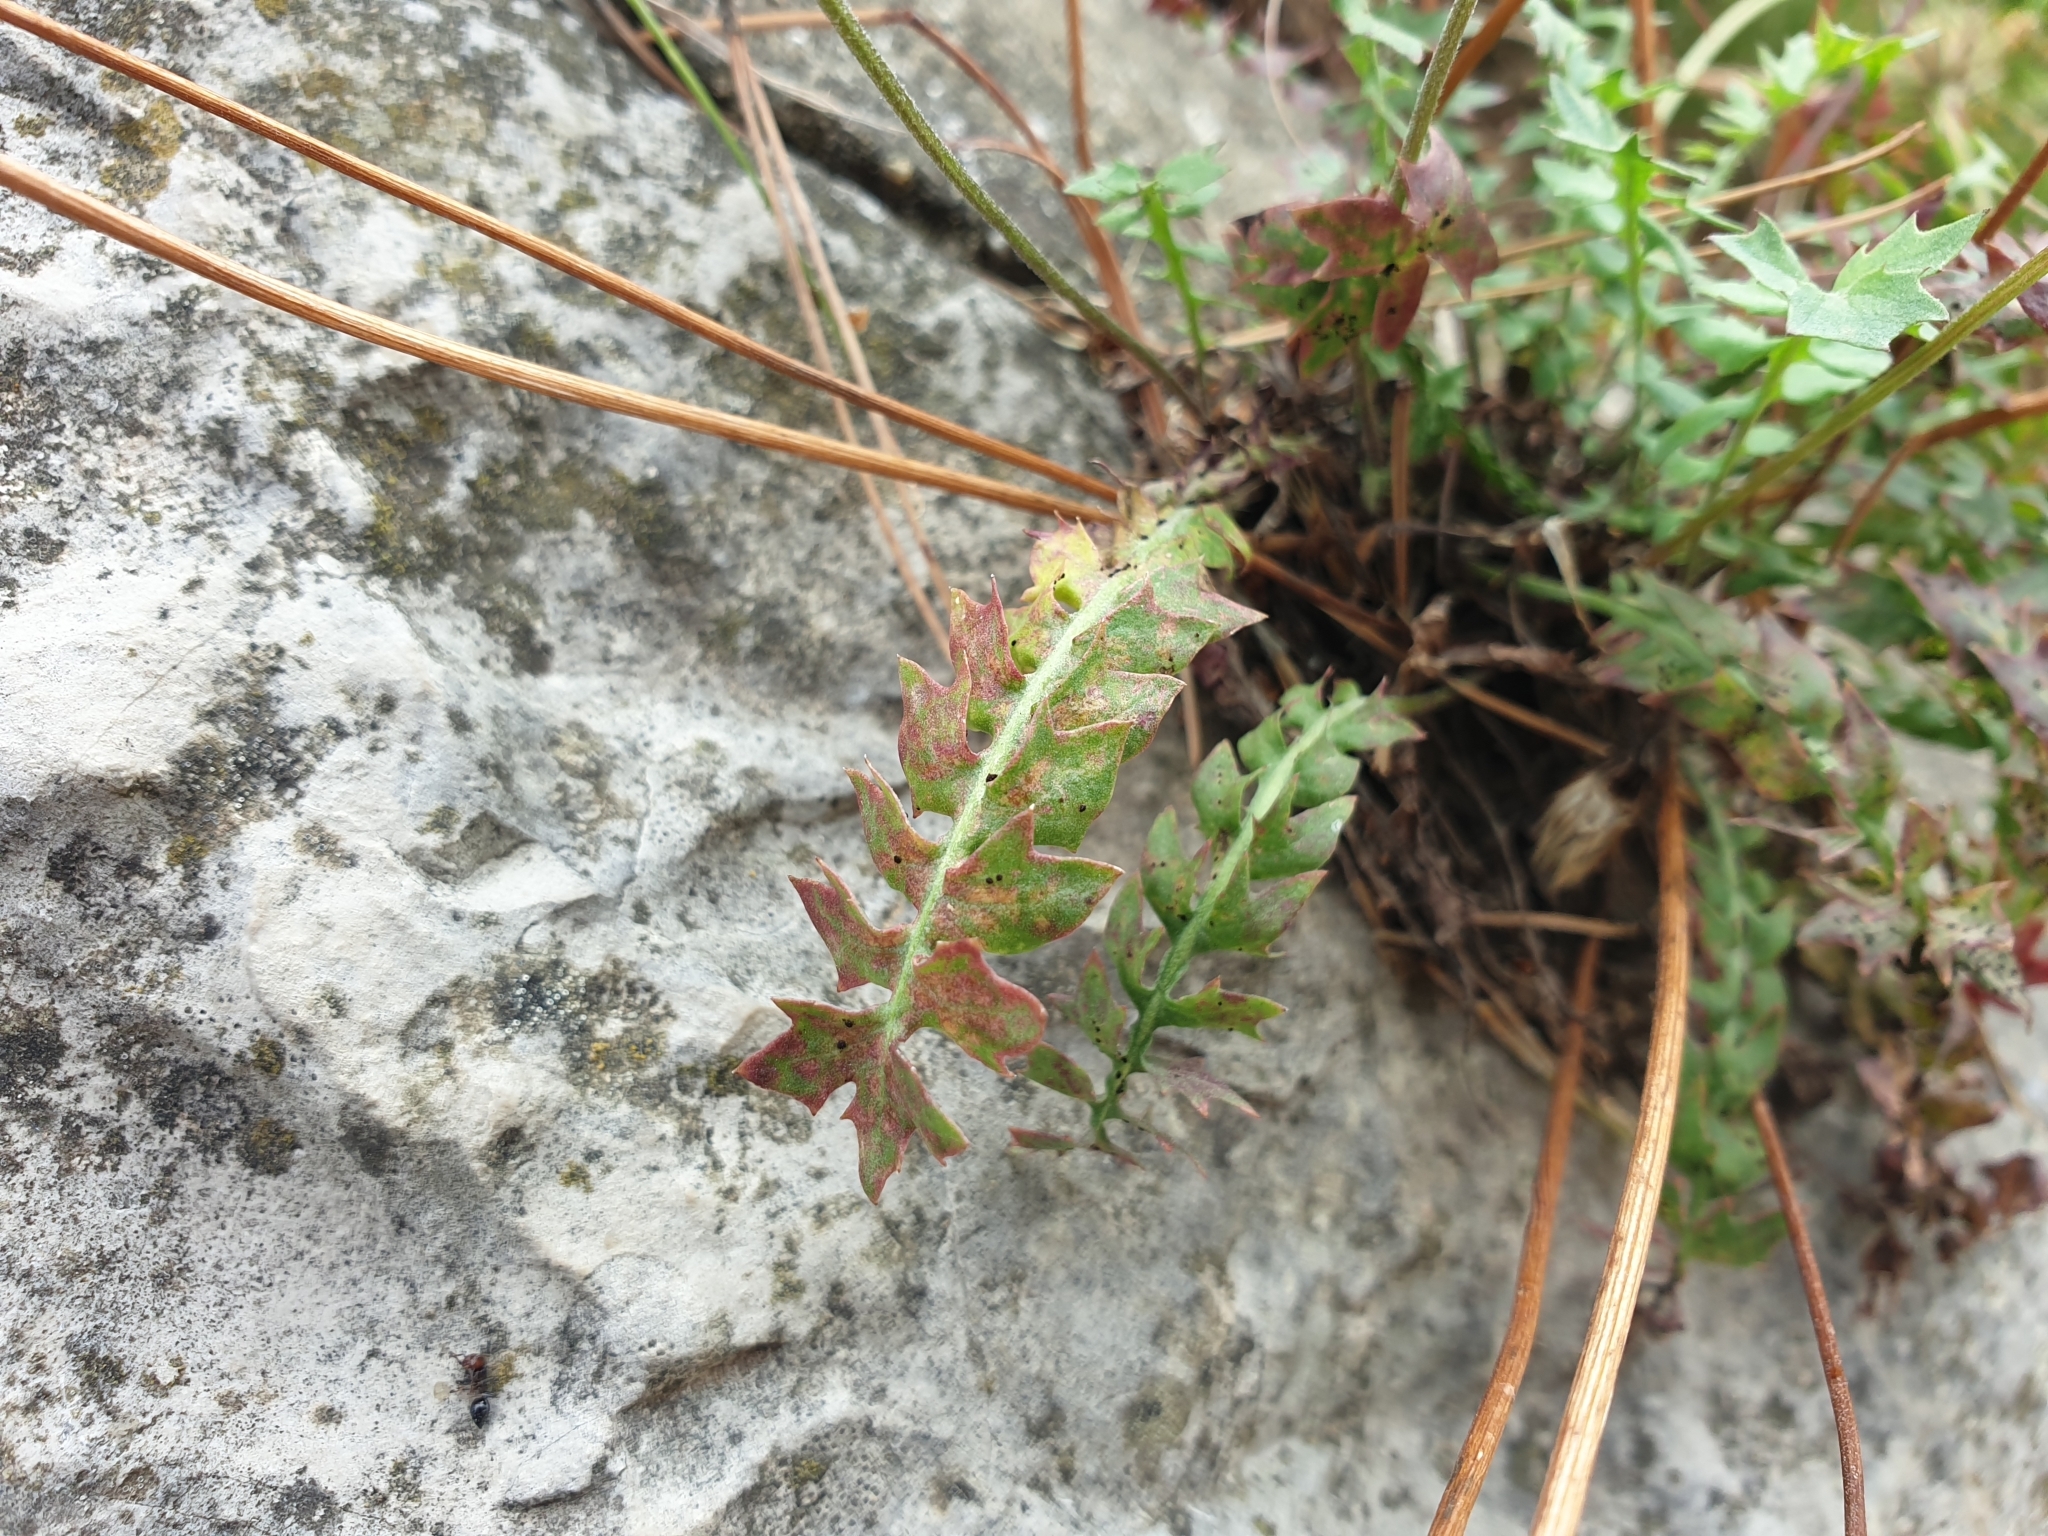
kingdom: Plantae
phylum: Tracheophyta
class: Magnoliopsida
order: Asterales
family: Asteraceae
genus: Hyoseris
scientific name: Hyoseris radiata
